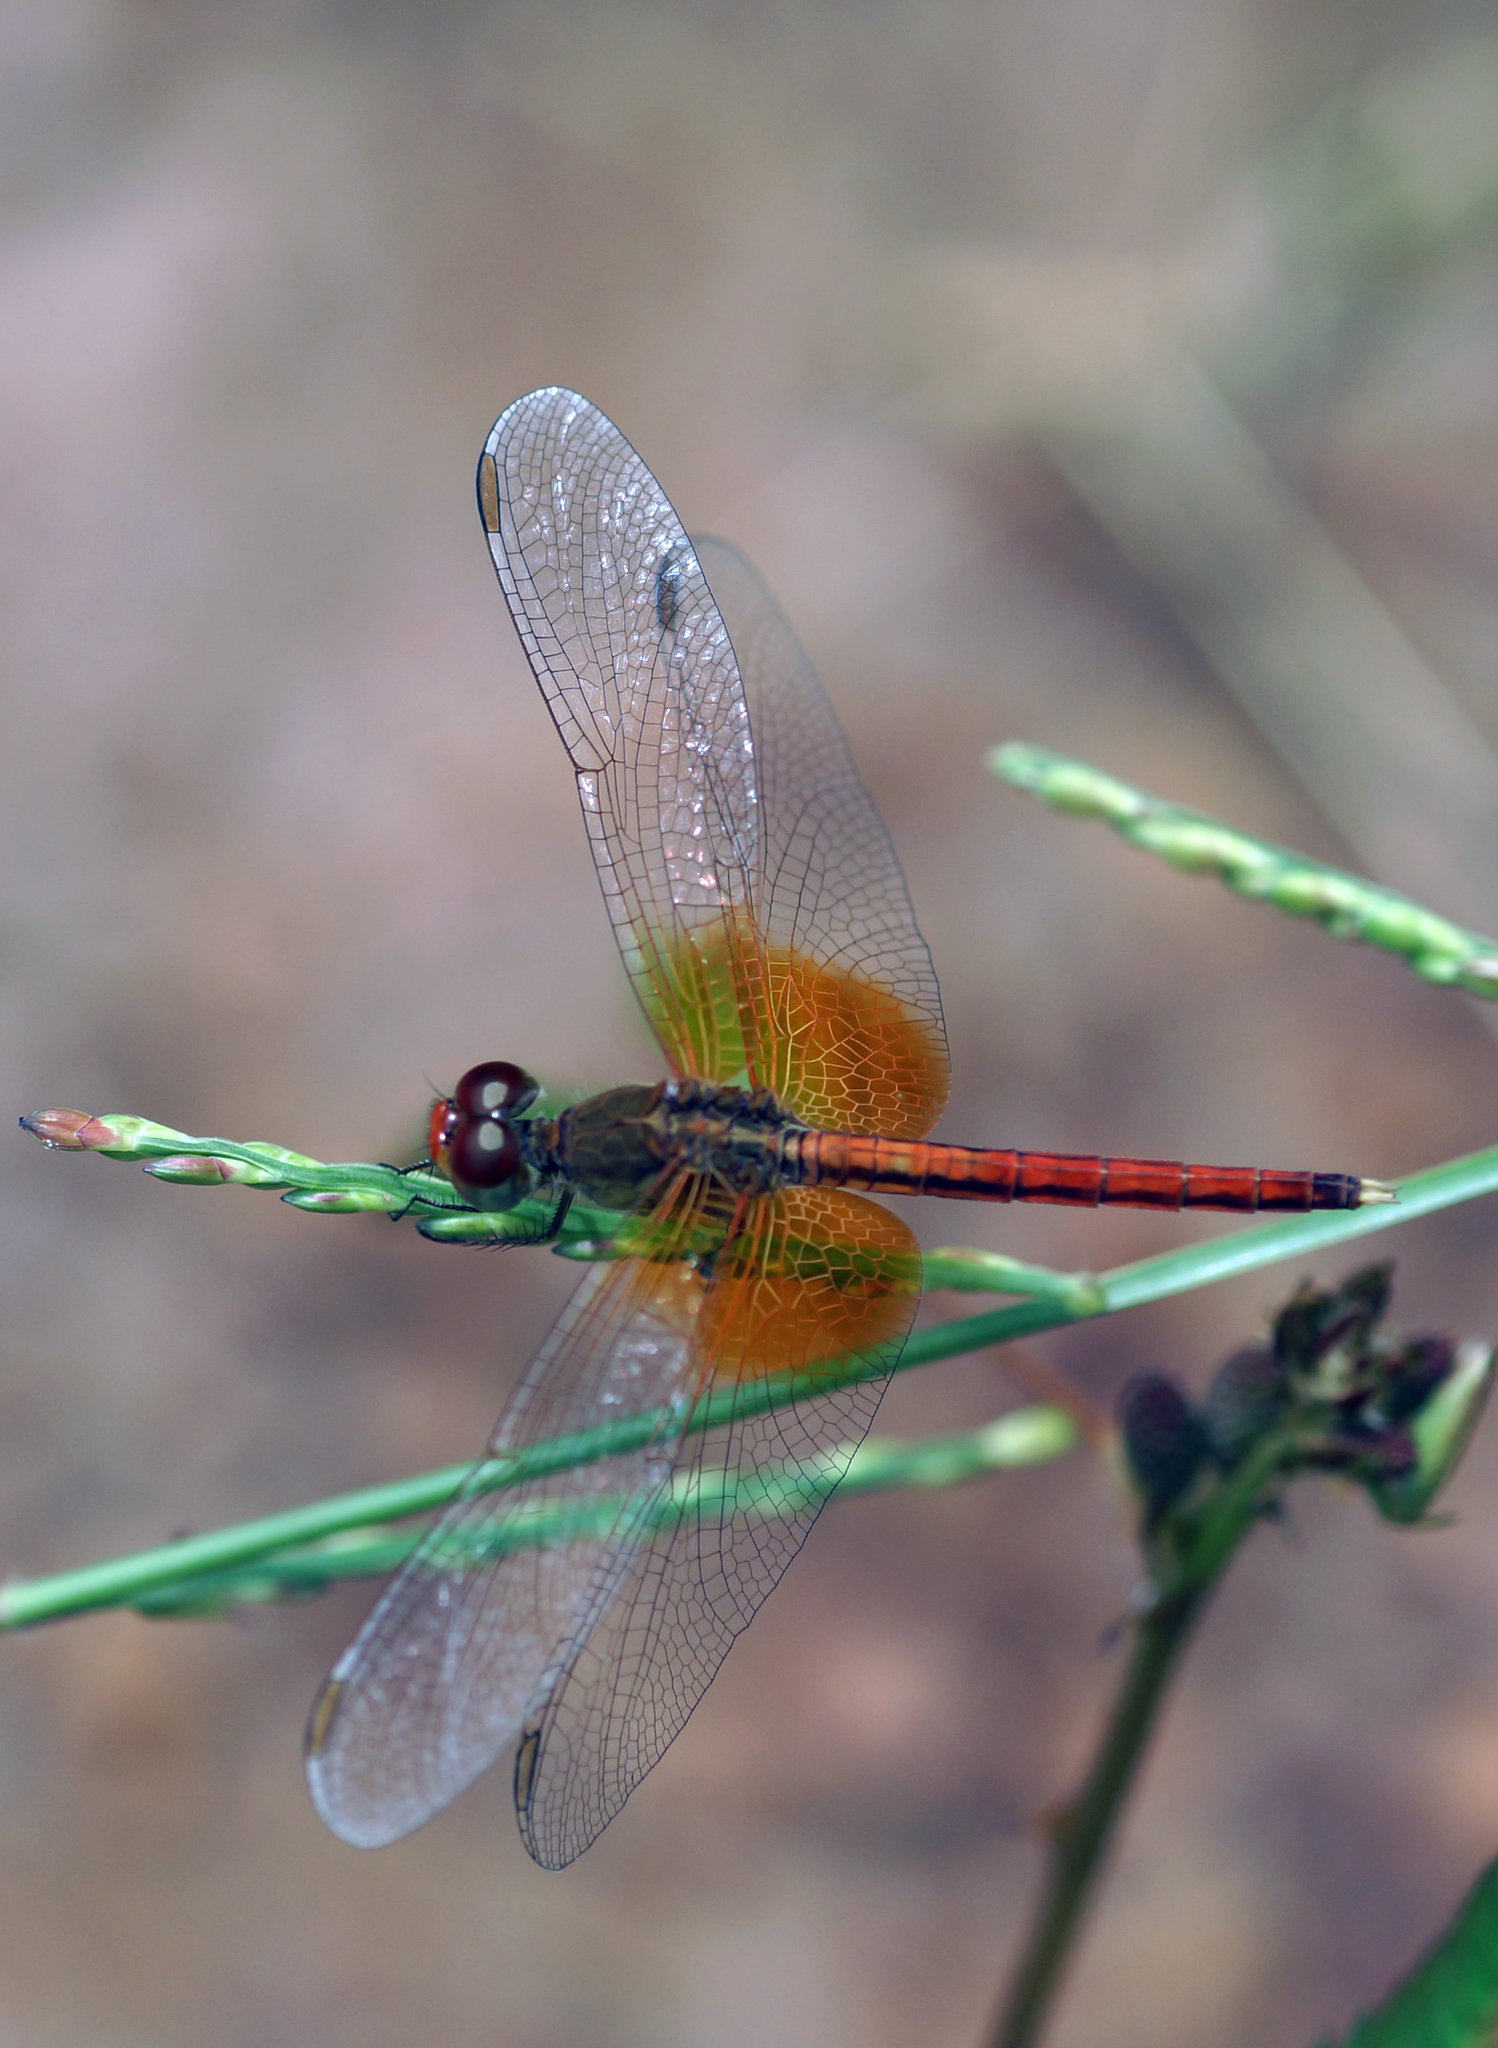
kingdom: Animalia
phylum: Arthropoda
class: Insecta
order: Odonata
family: Libellulidae
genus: Neurothemis
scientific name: Neurothemis intermedia
